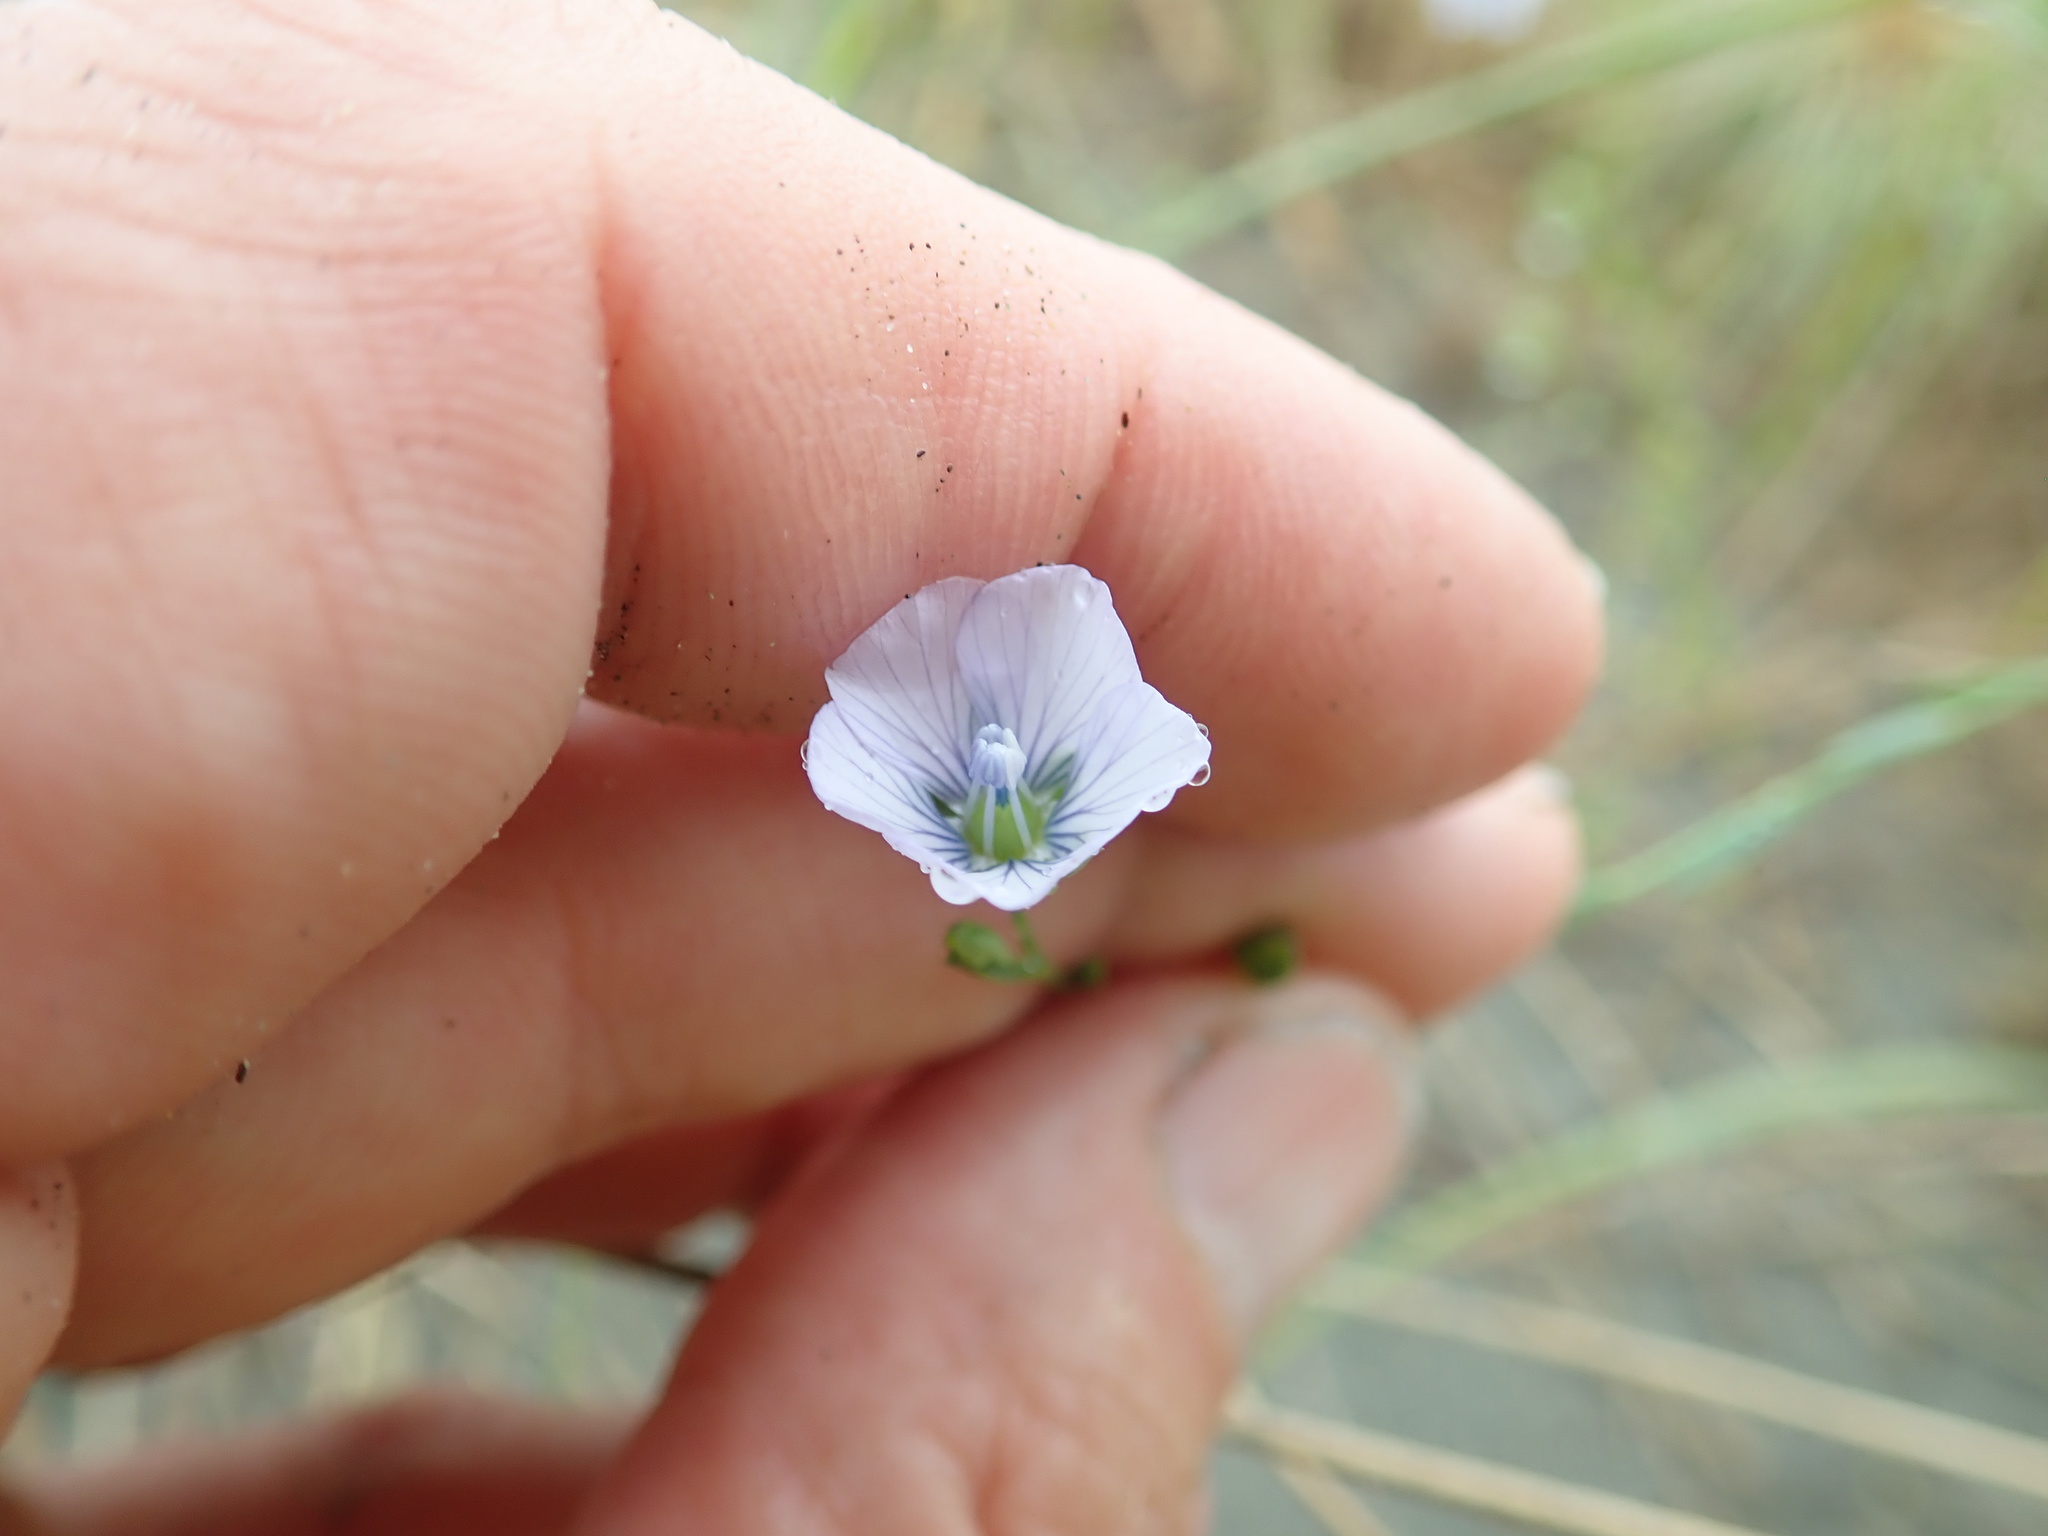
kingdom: Plantae
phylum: Tracheophyta
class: Magnoliopsida
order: Malpighiales
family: Linaceae
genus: Linum
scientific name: Linum bienne
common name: Pale flax
